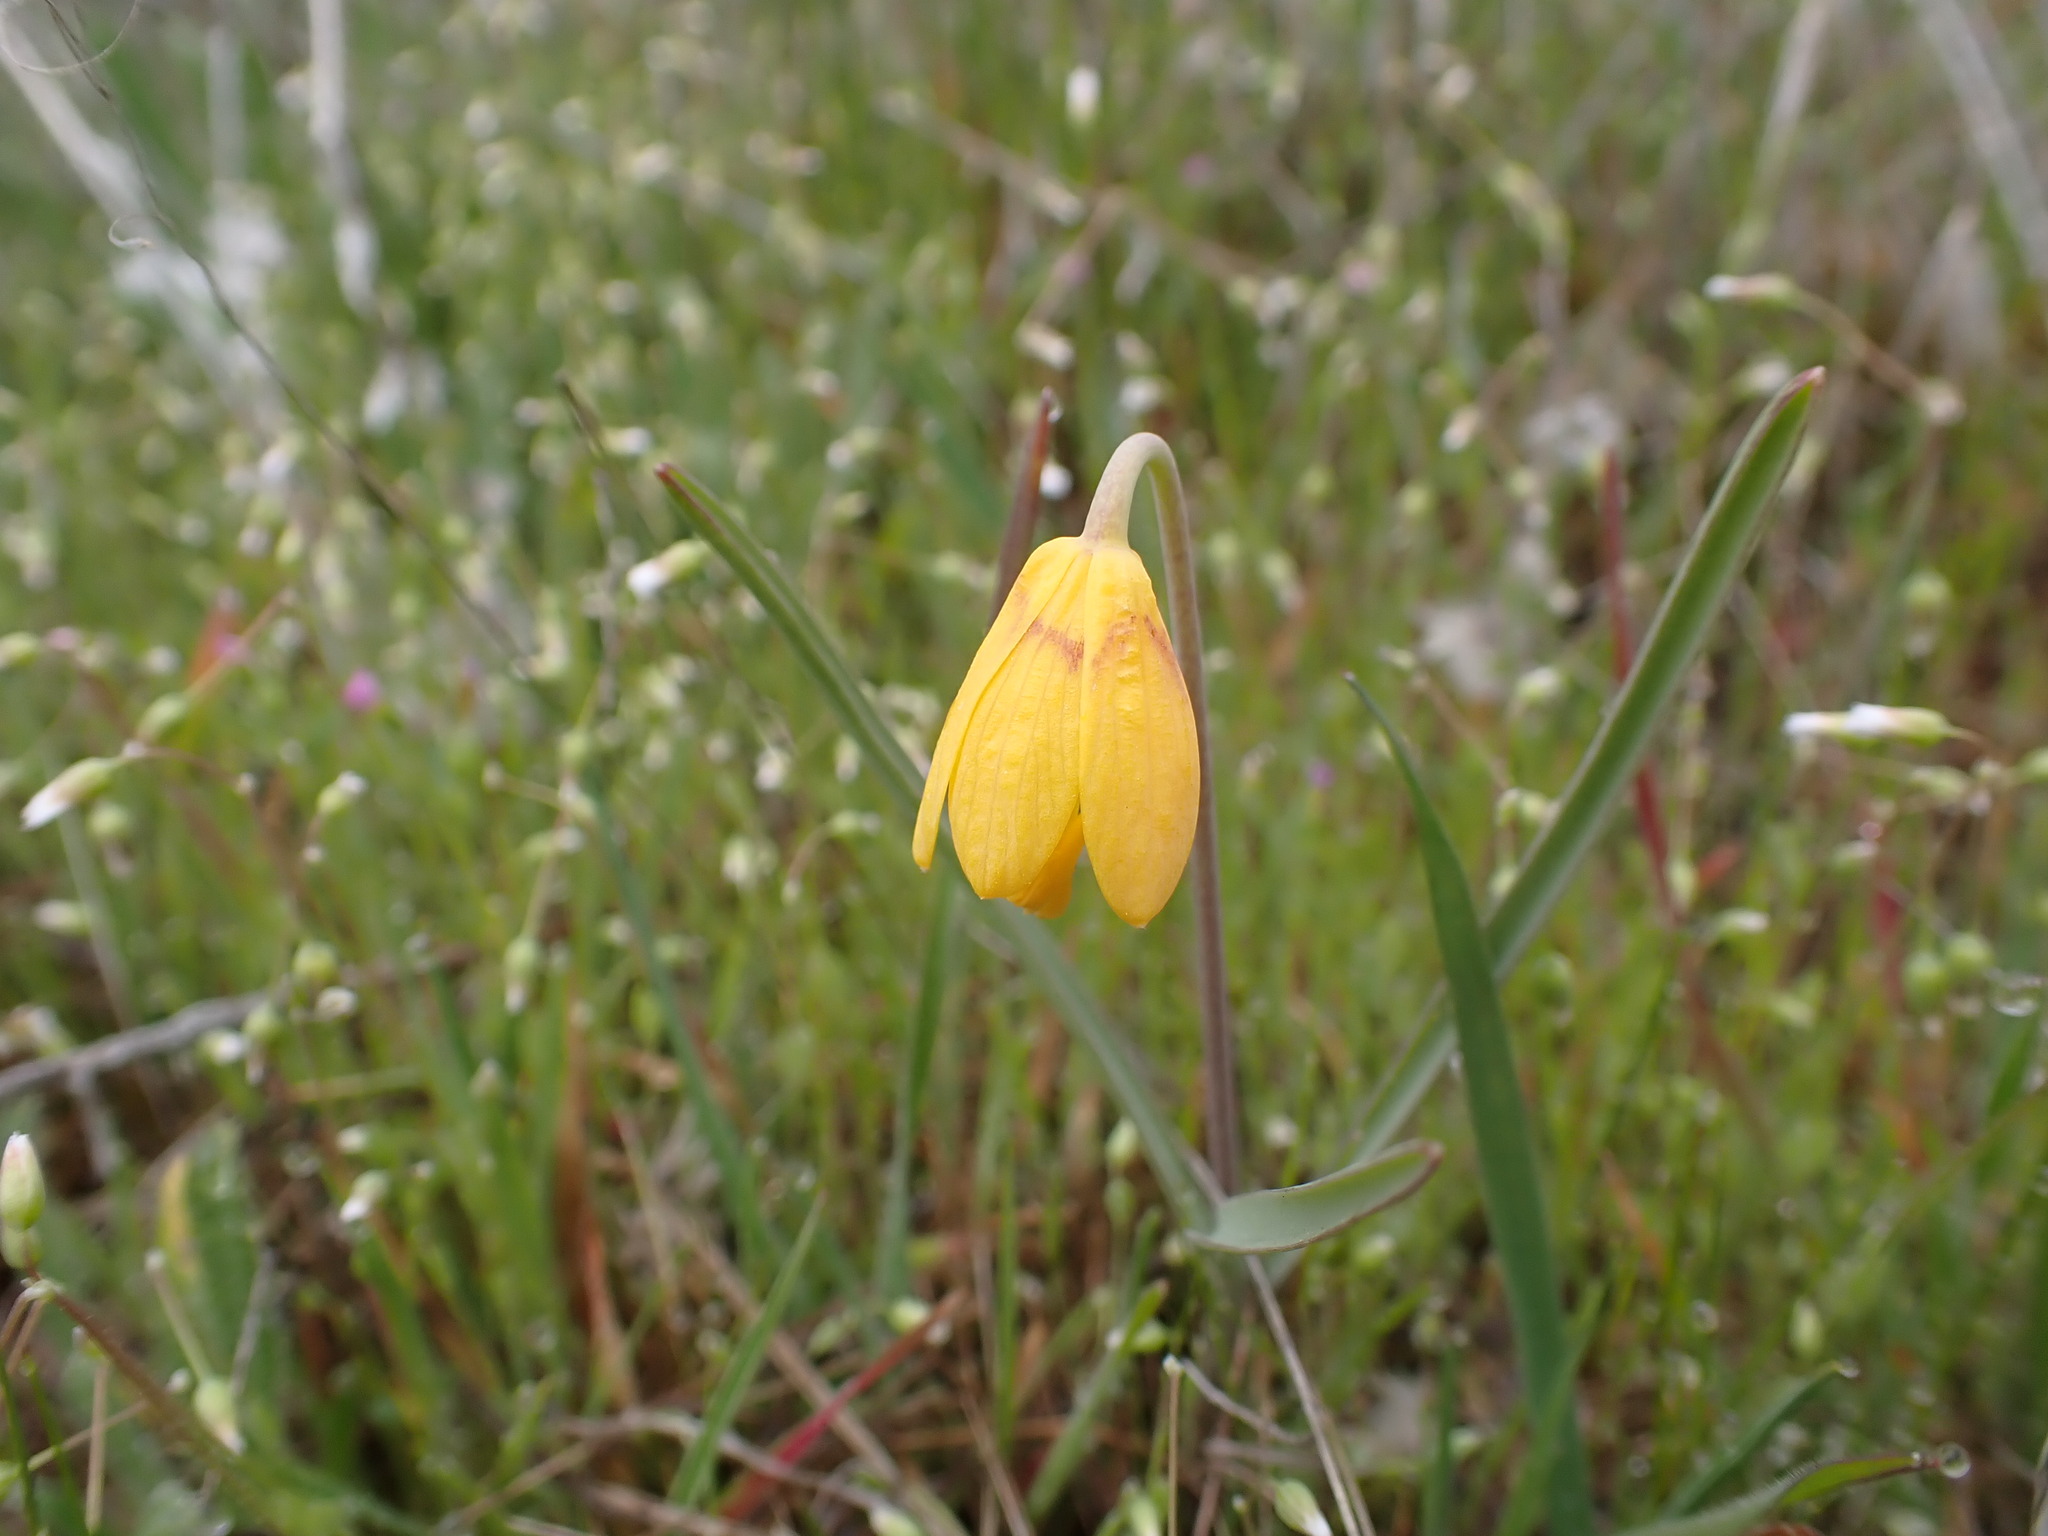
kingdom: Plantae
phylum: Tracheophyta
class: Liliopsida
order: Liliales
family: Liliaceae
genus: Fritillaria
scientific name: Fritillaria pudica
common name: Yellow fritillary
